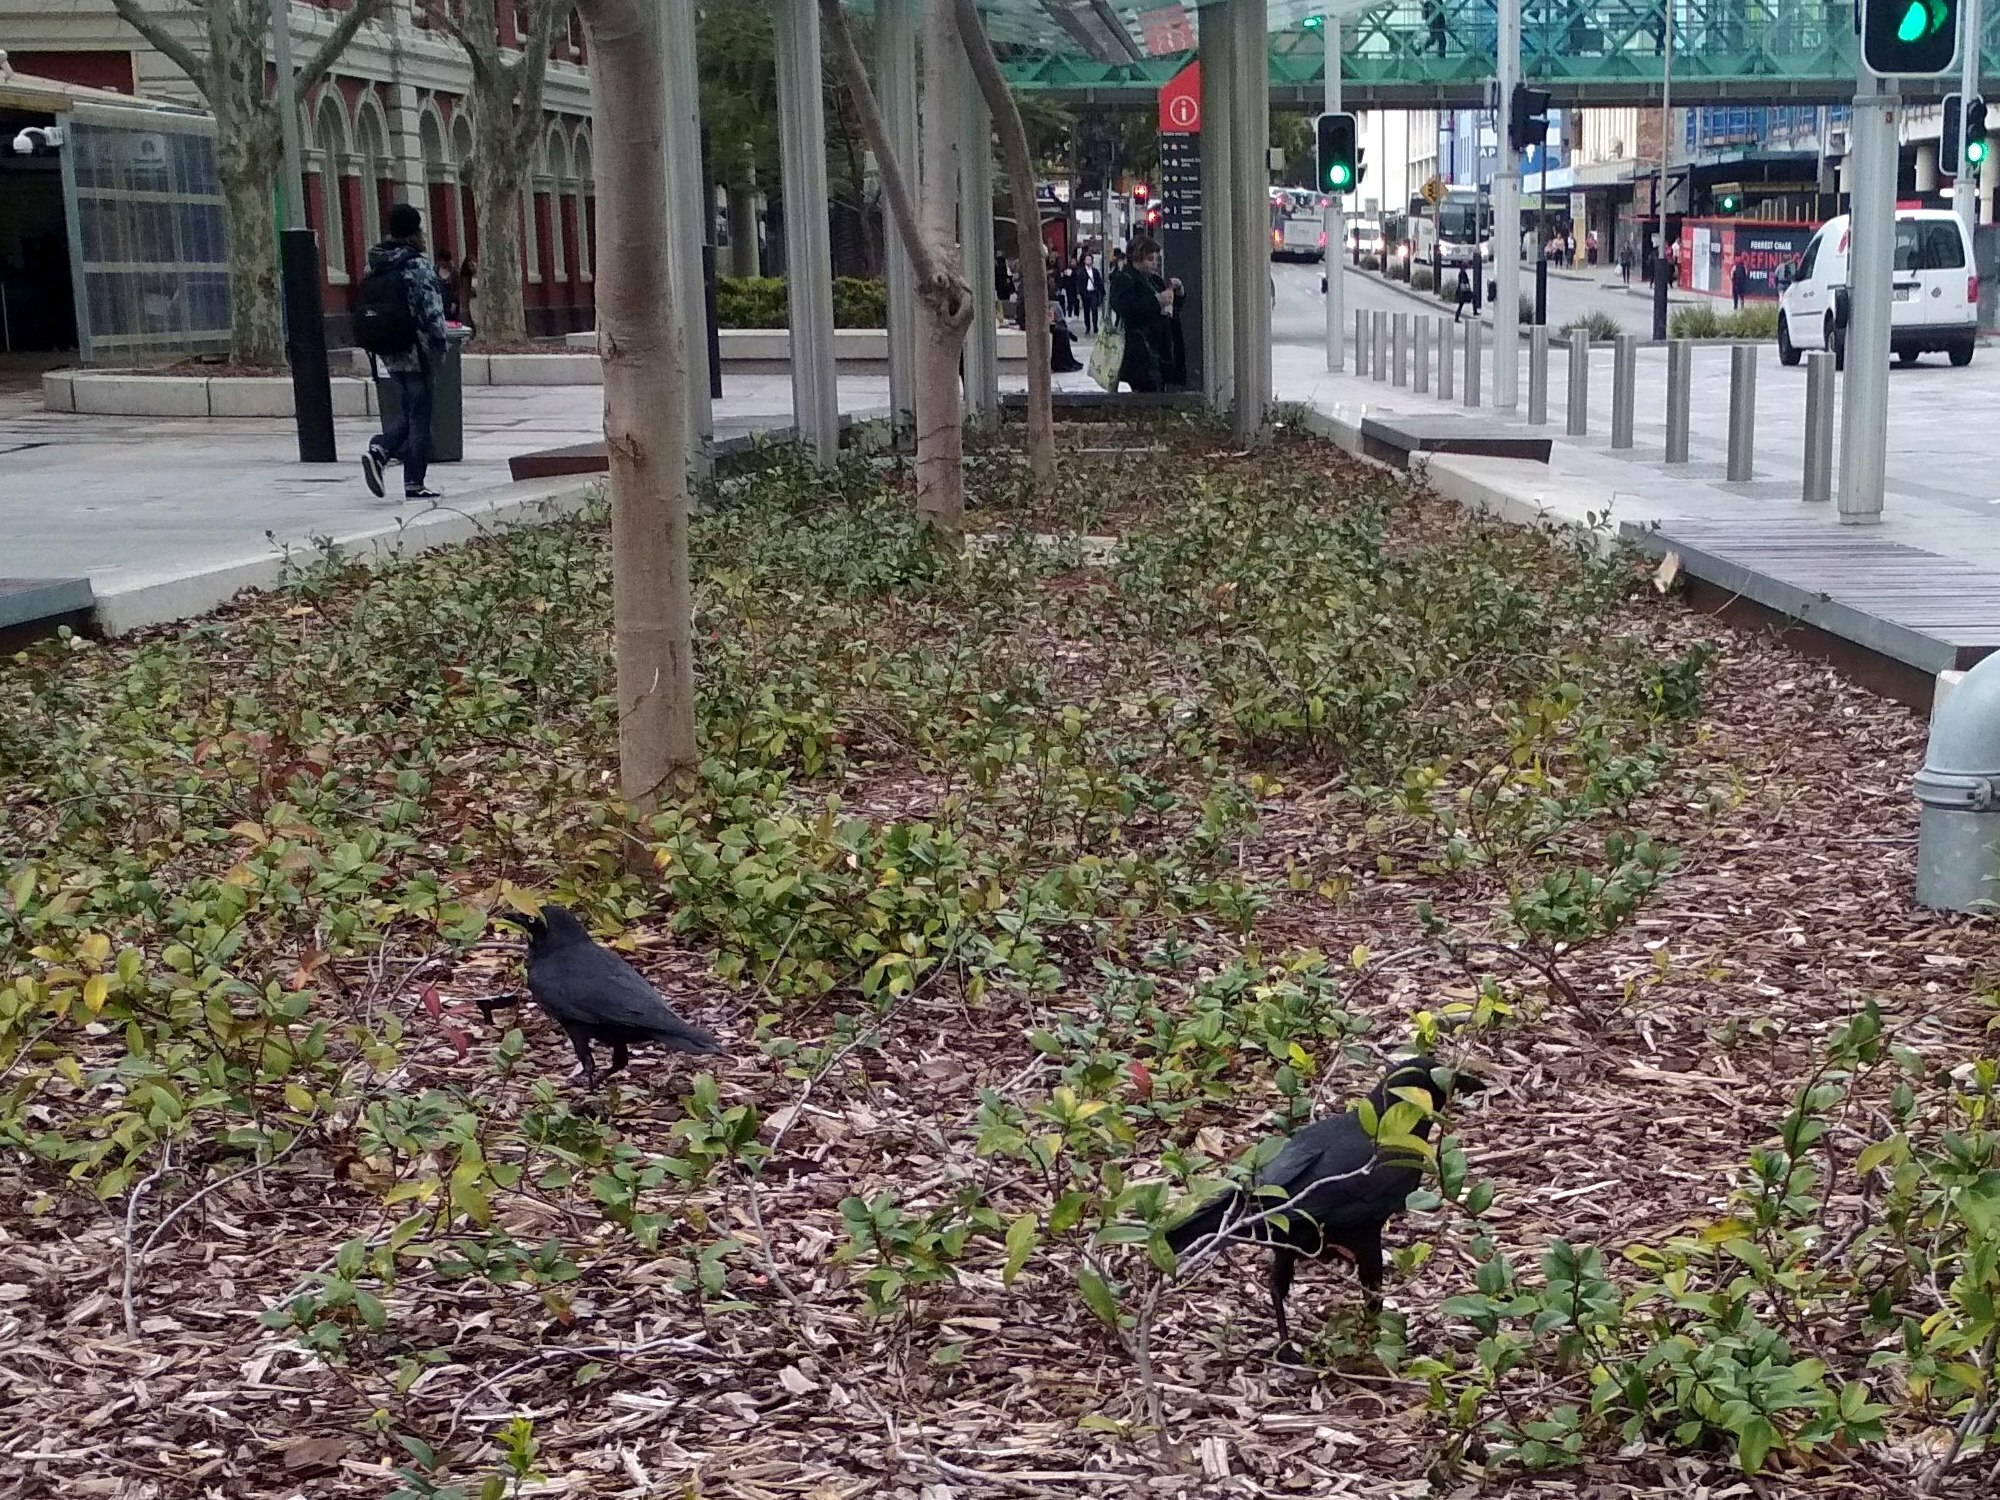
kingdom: Animalia
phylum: Chordata
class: Aves
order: Passeriformes
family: Corvidae
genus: Corvus
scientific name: Corvus coronoides
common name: Australian raven
